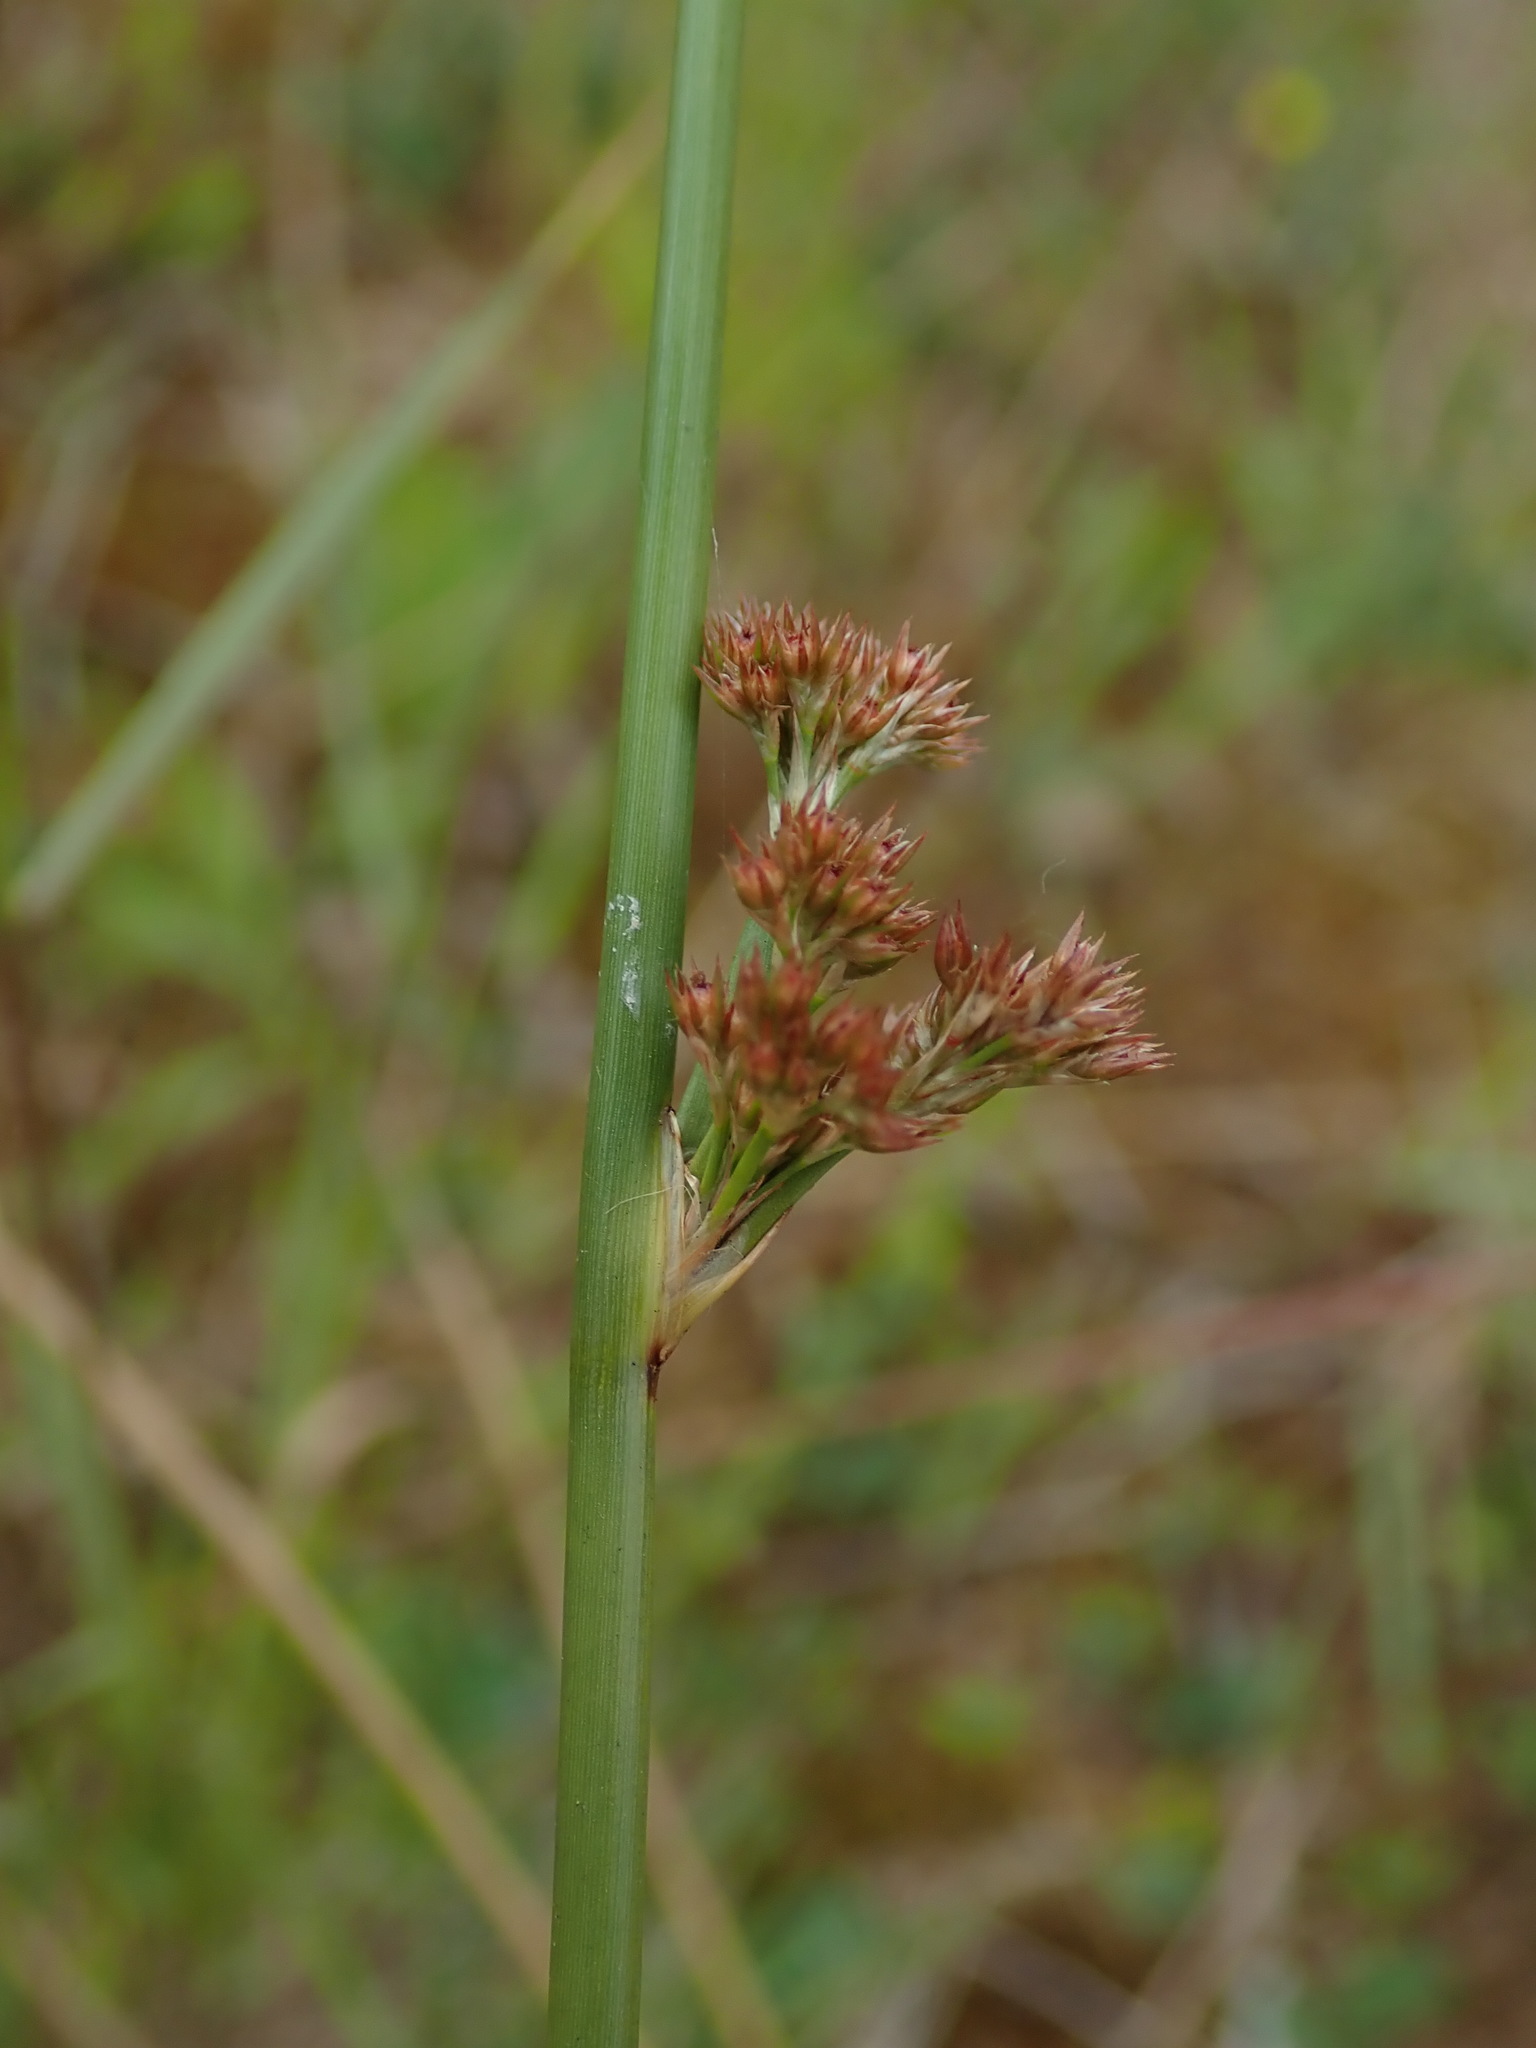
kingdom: Plantae
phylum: Tracheophyta
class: Liliopsida
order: Poales
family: Juncaceae
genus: Juncus
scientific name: Juncus effusus
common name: Soft rush
